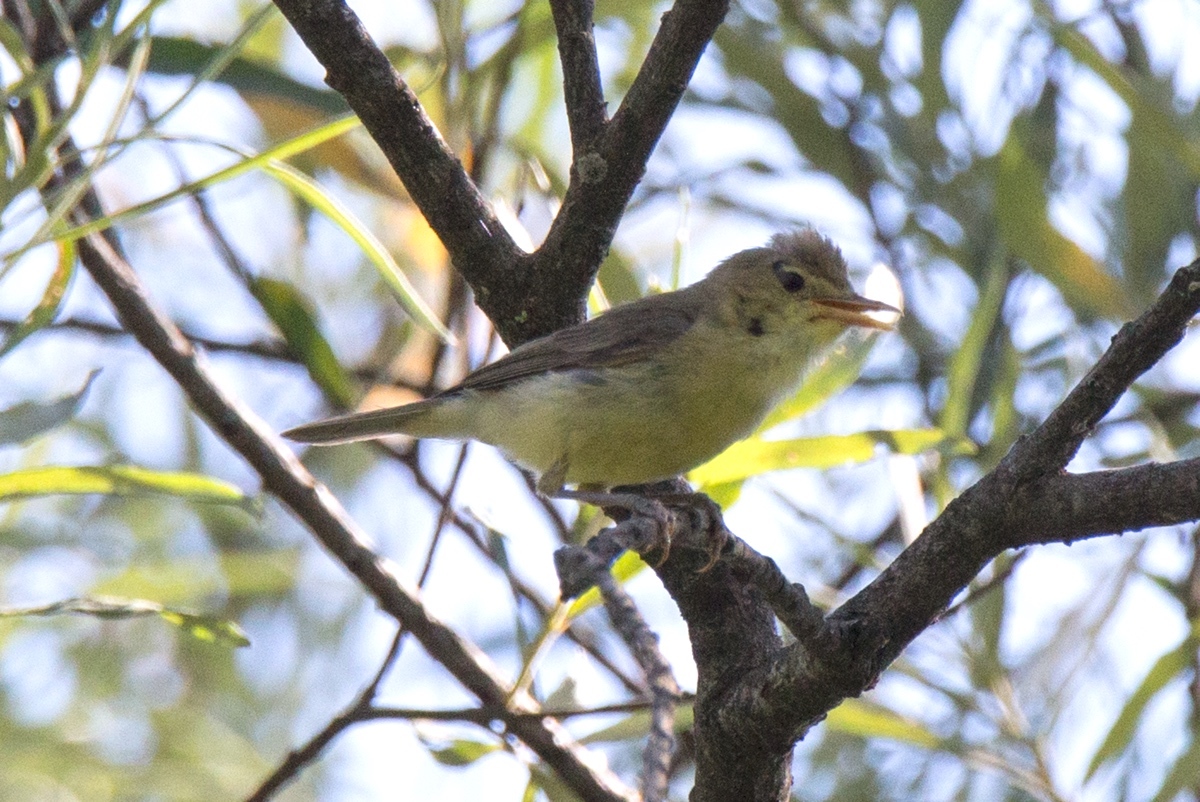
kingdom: Animalia
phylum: Chordata
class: Aves
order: Passeriformes
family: Acrocephalidae
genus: Hippolais
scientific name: Hippolais polyglotta
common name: Melodious warbler
